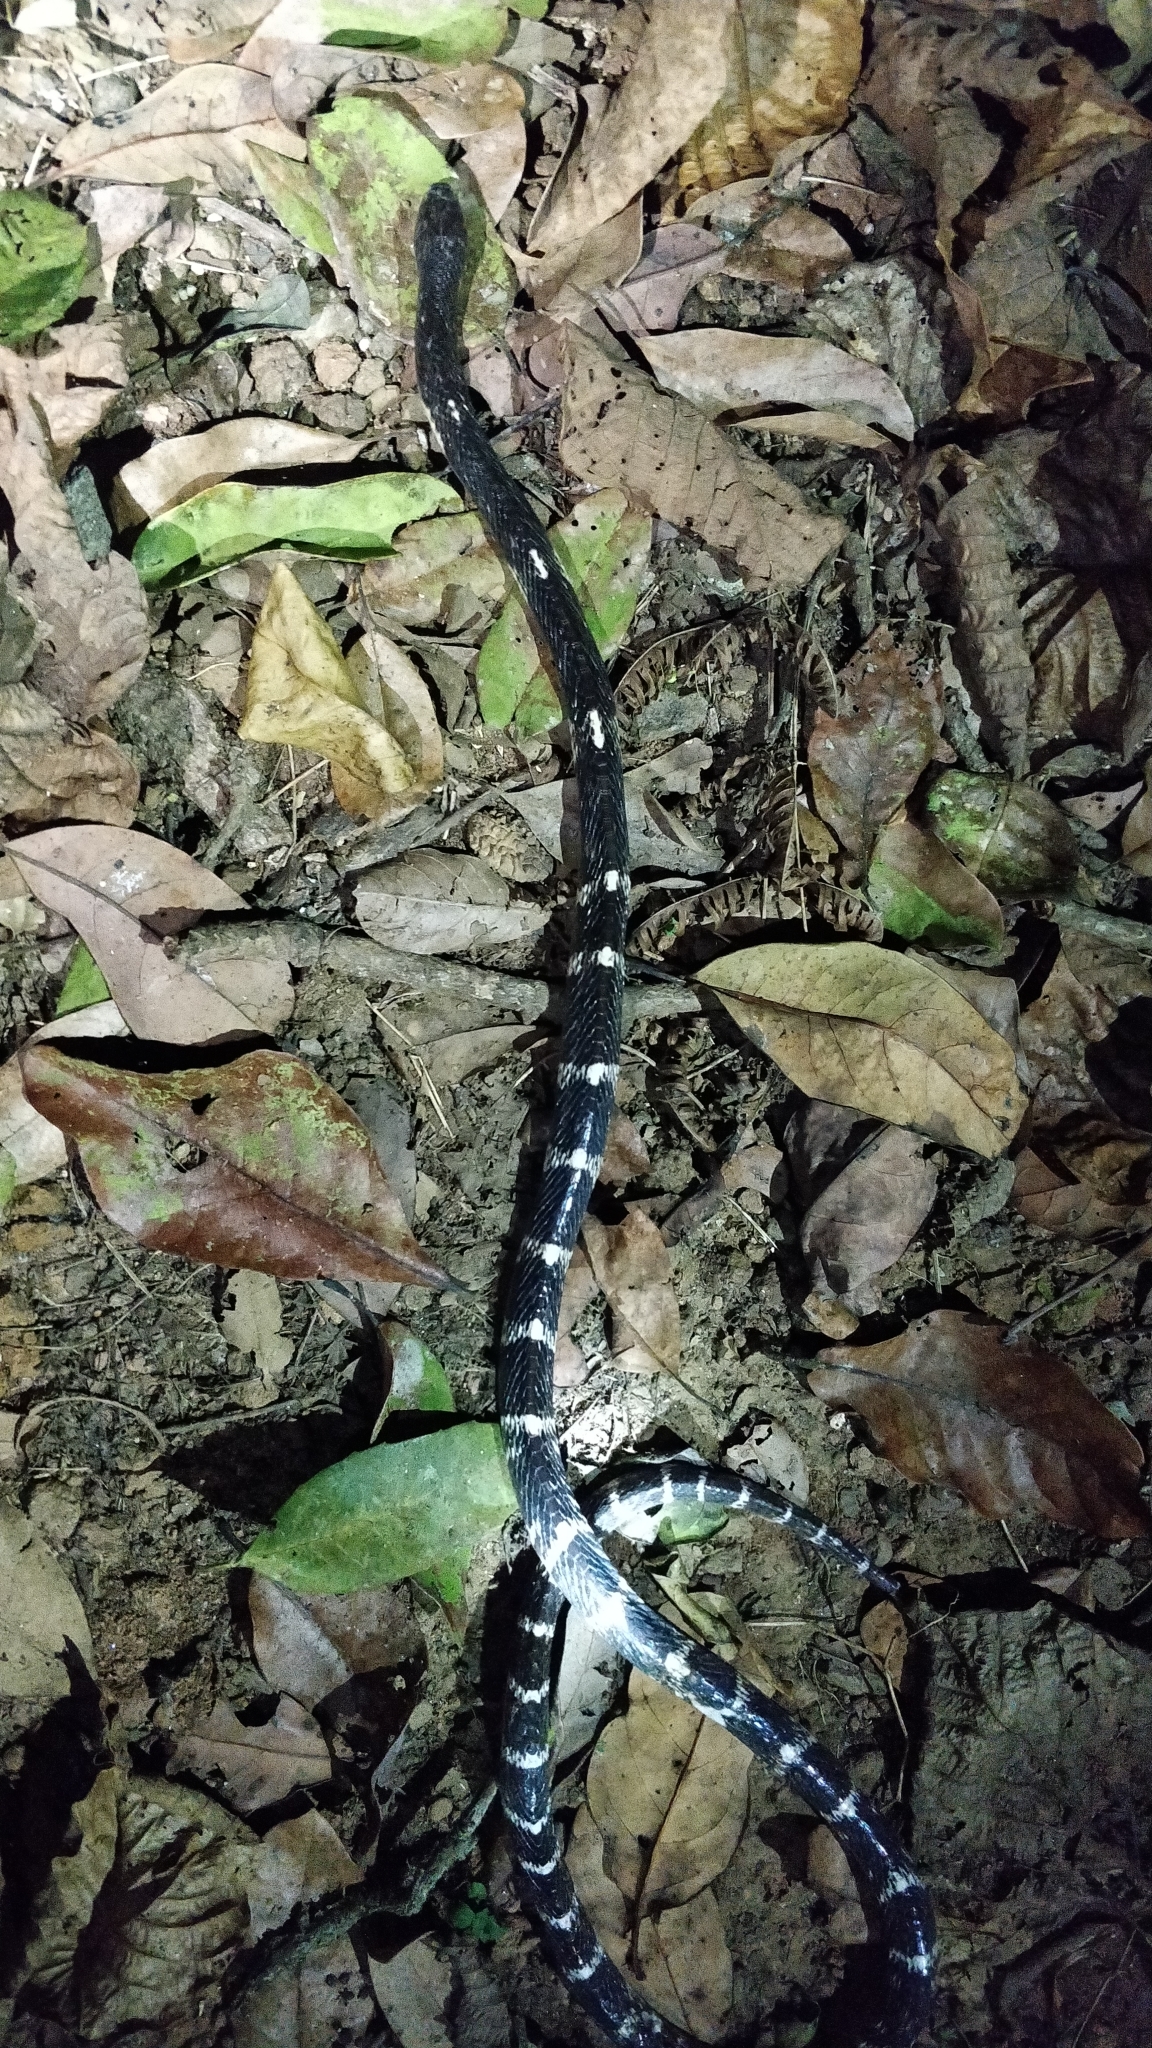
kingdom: Animalia
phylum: Chordata
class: Squamata
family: Elapidae
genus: Bungarus
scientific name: Bungarus caeruleus
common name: Common krait
